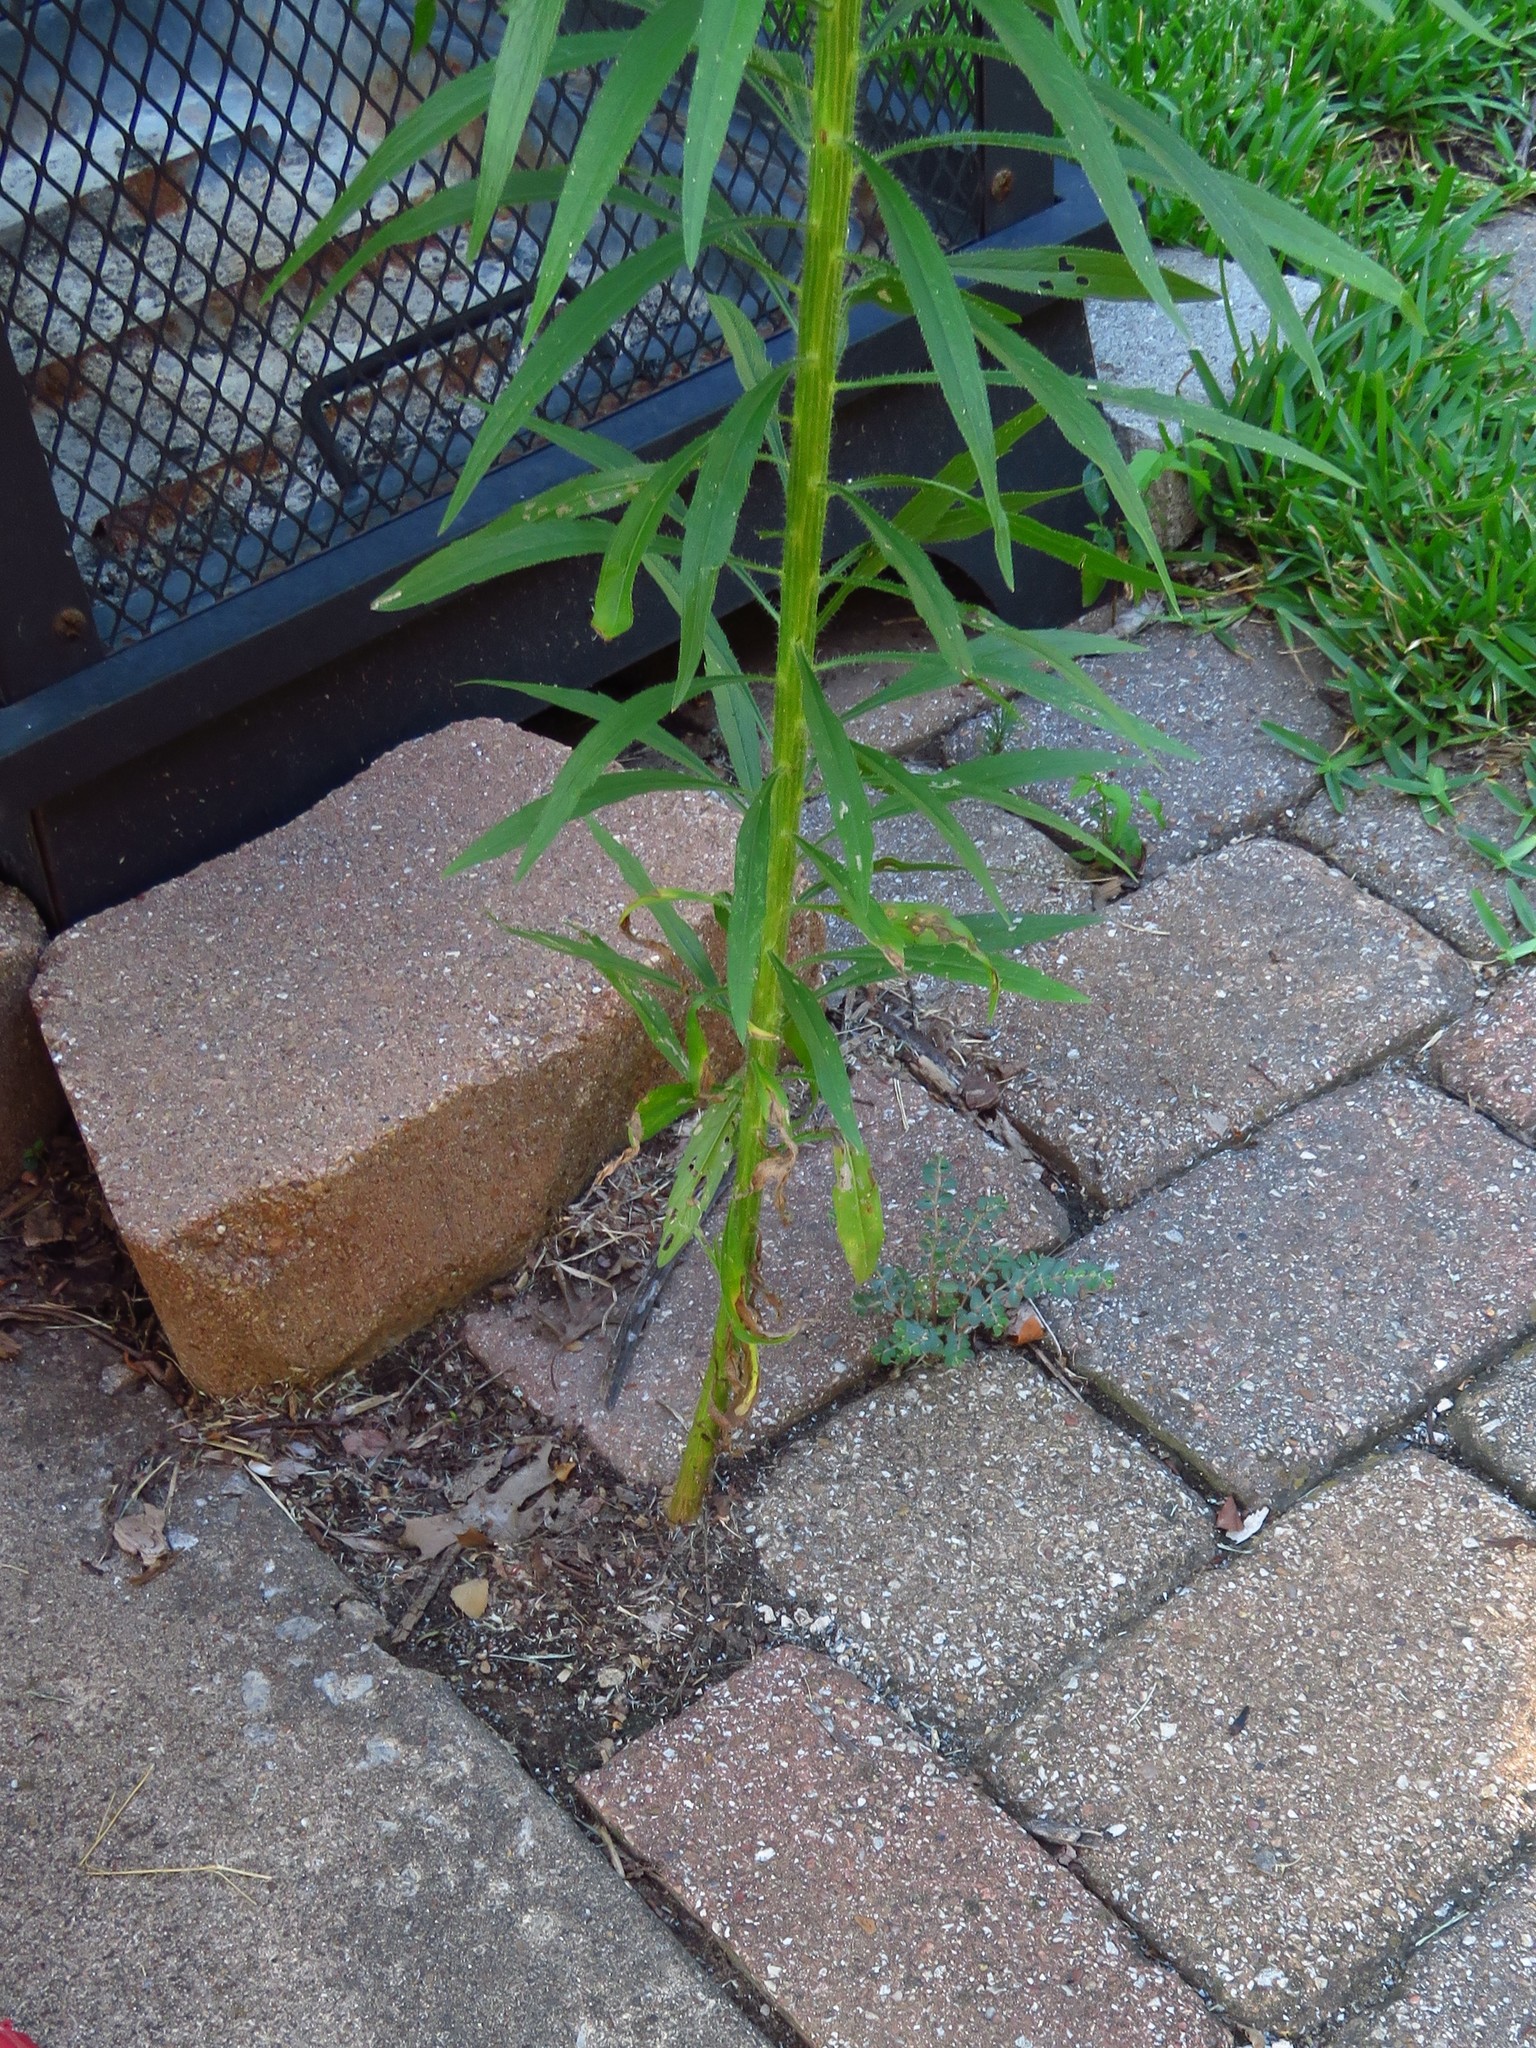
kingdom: Plantae
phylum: Tracheophyta
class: Magnoliopsida
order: Asterales
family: Asteraceae
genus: Erigeron
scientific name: Erigeron canadensis
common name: Canadian fleabane
